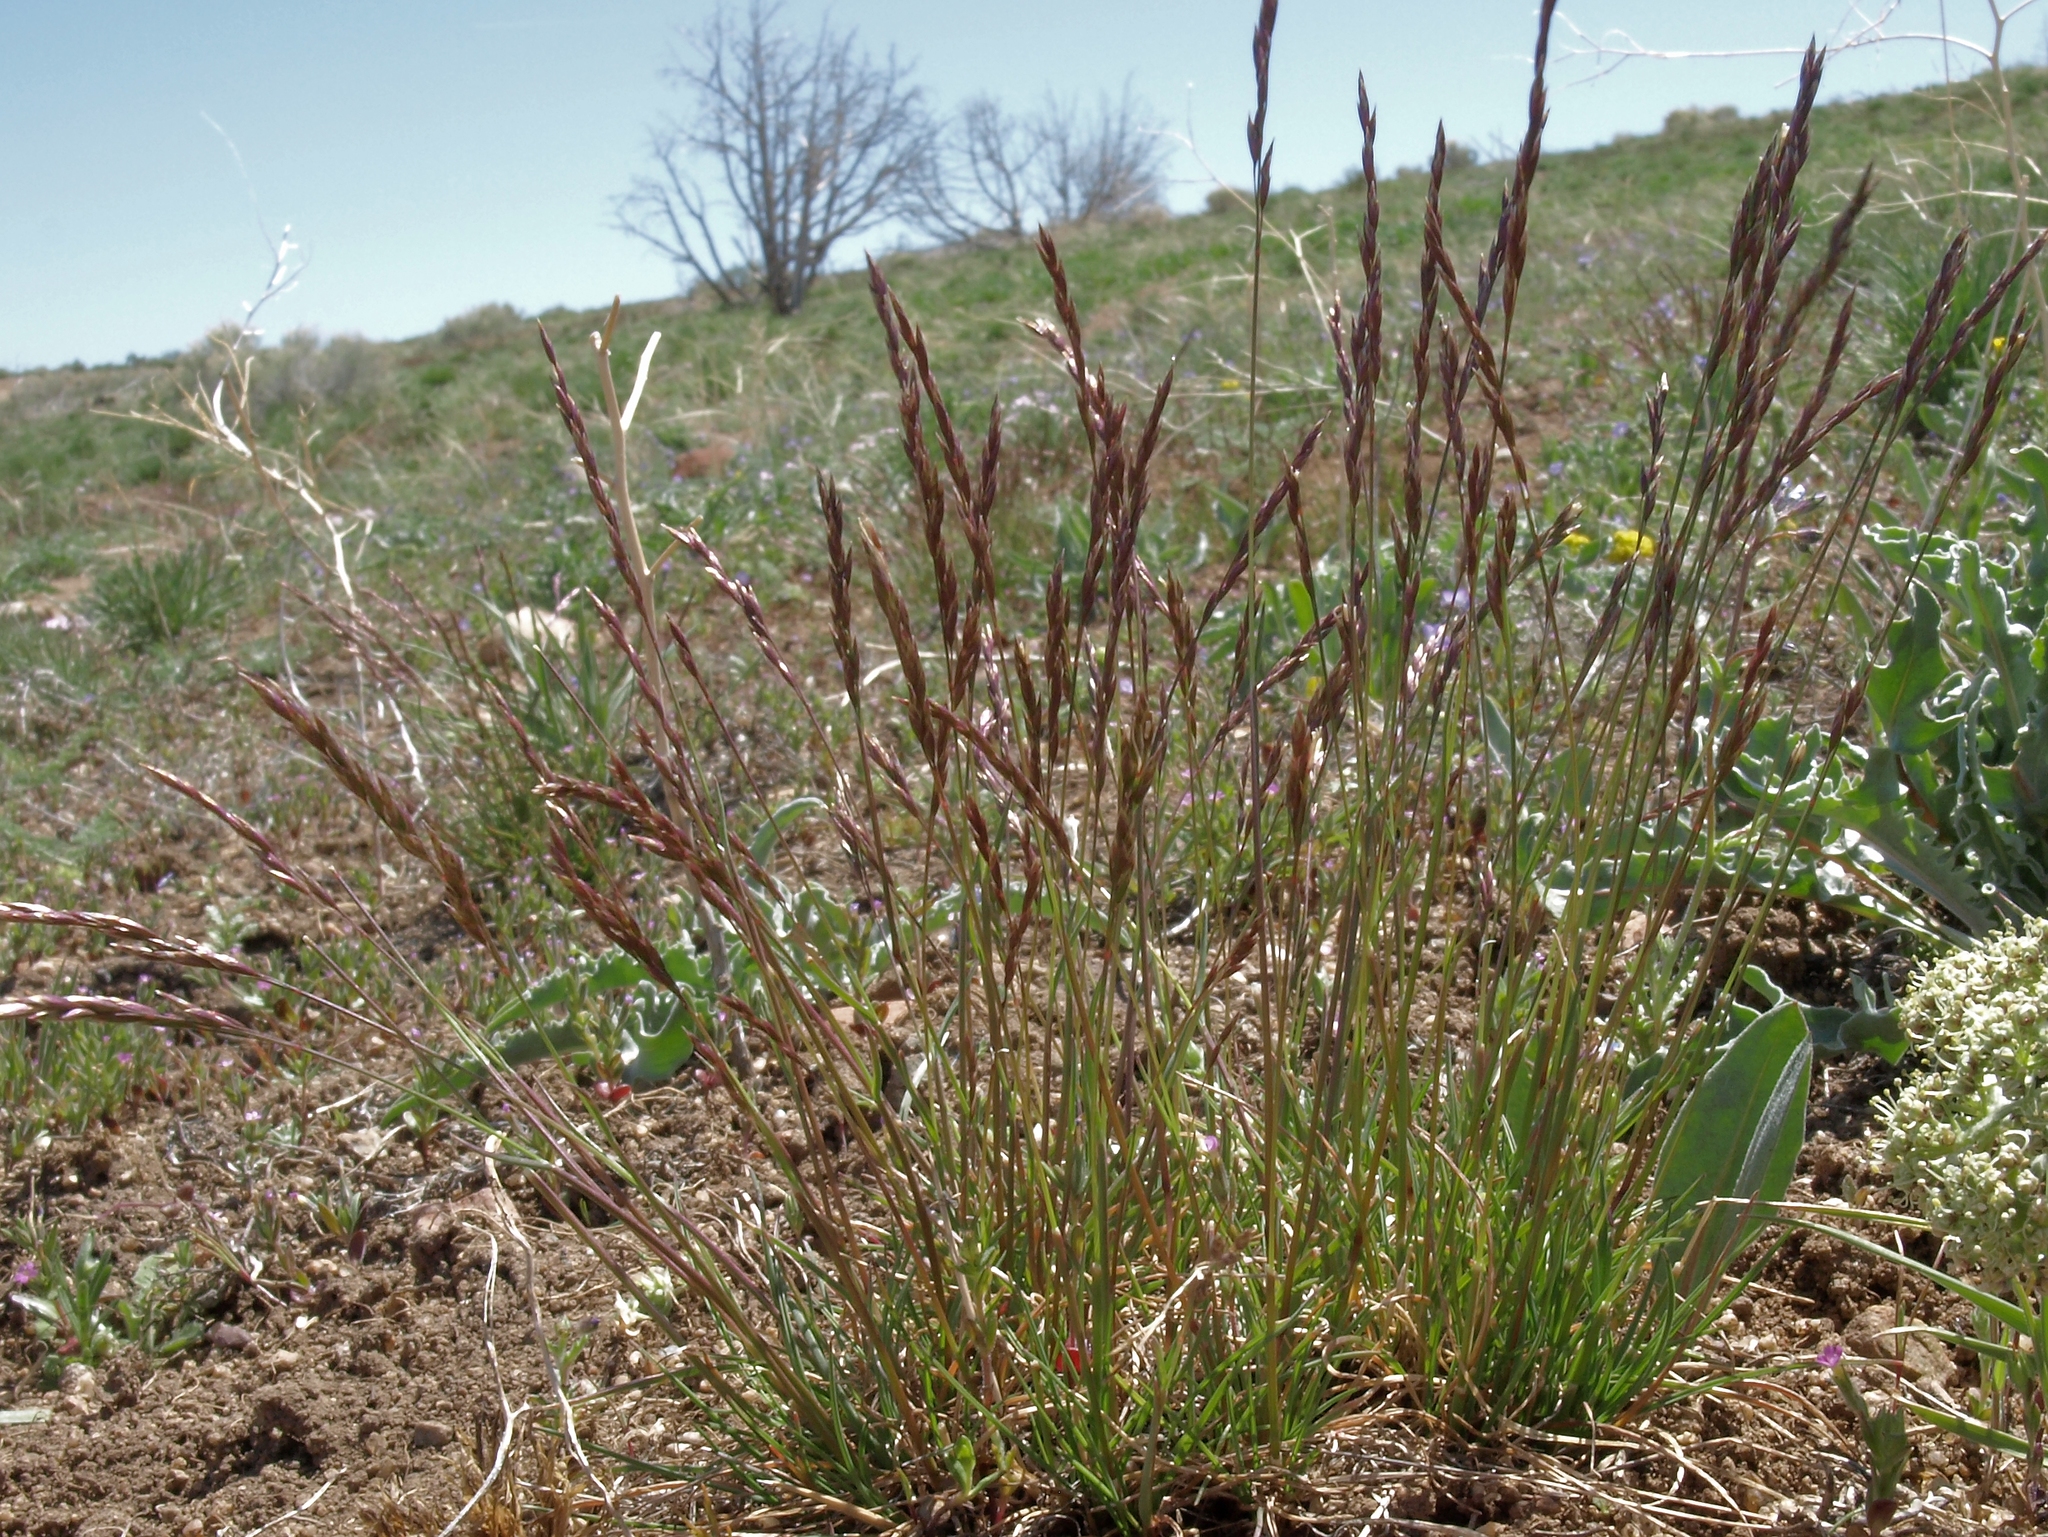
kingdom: Plantae
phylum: Tracheophyta
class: Liliopsida
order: Poales
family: Poaceae
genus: Poa
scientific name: Poa secunda
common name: Sandberg bluegrass
